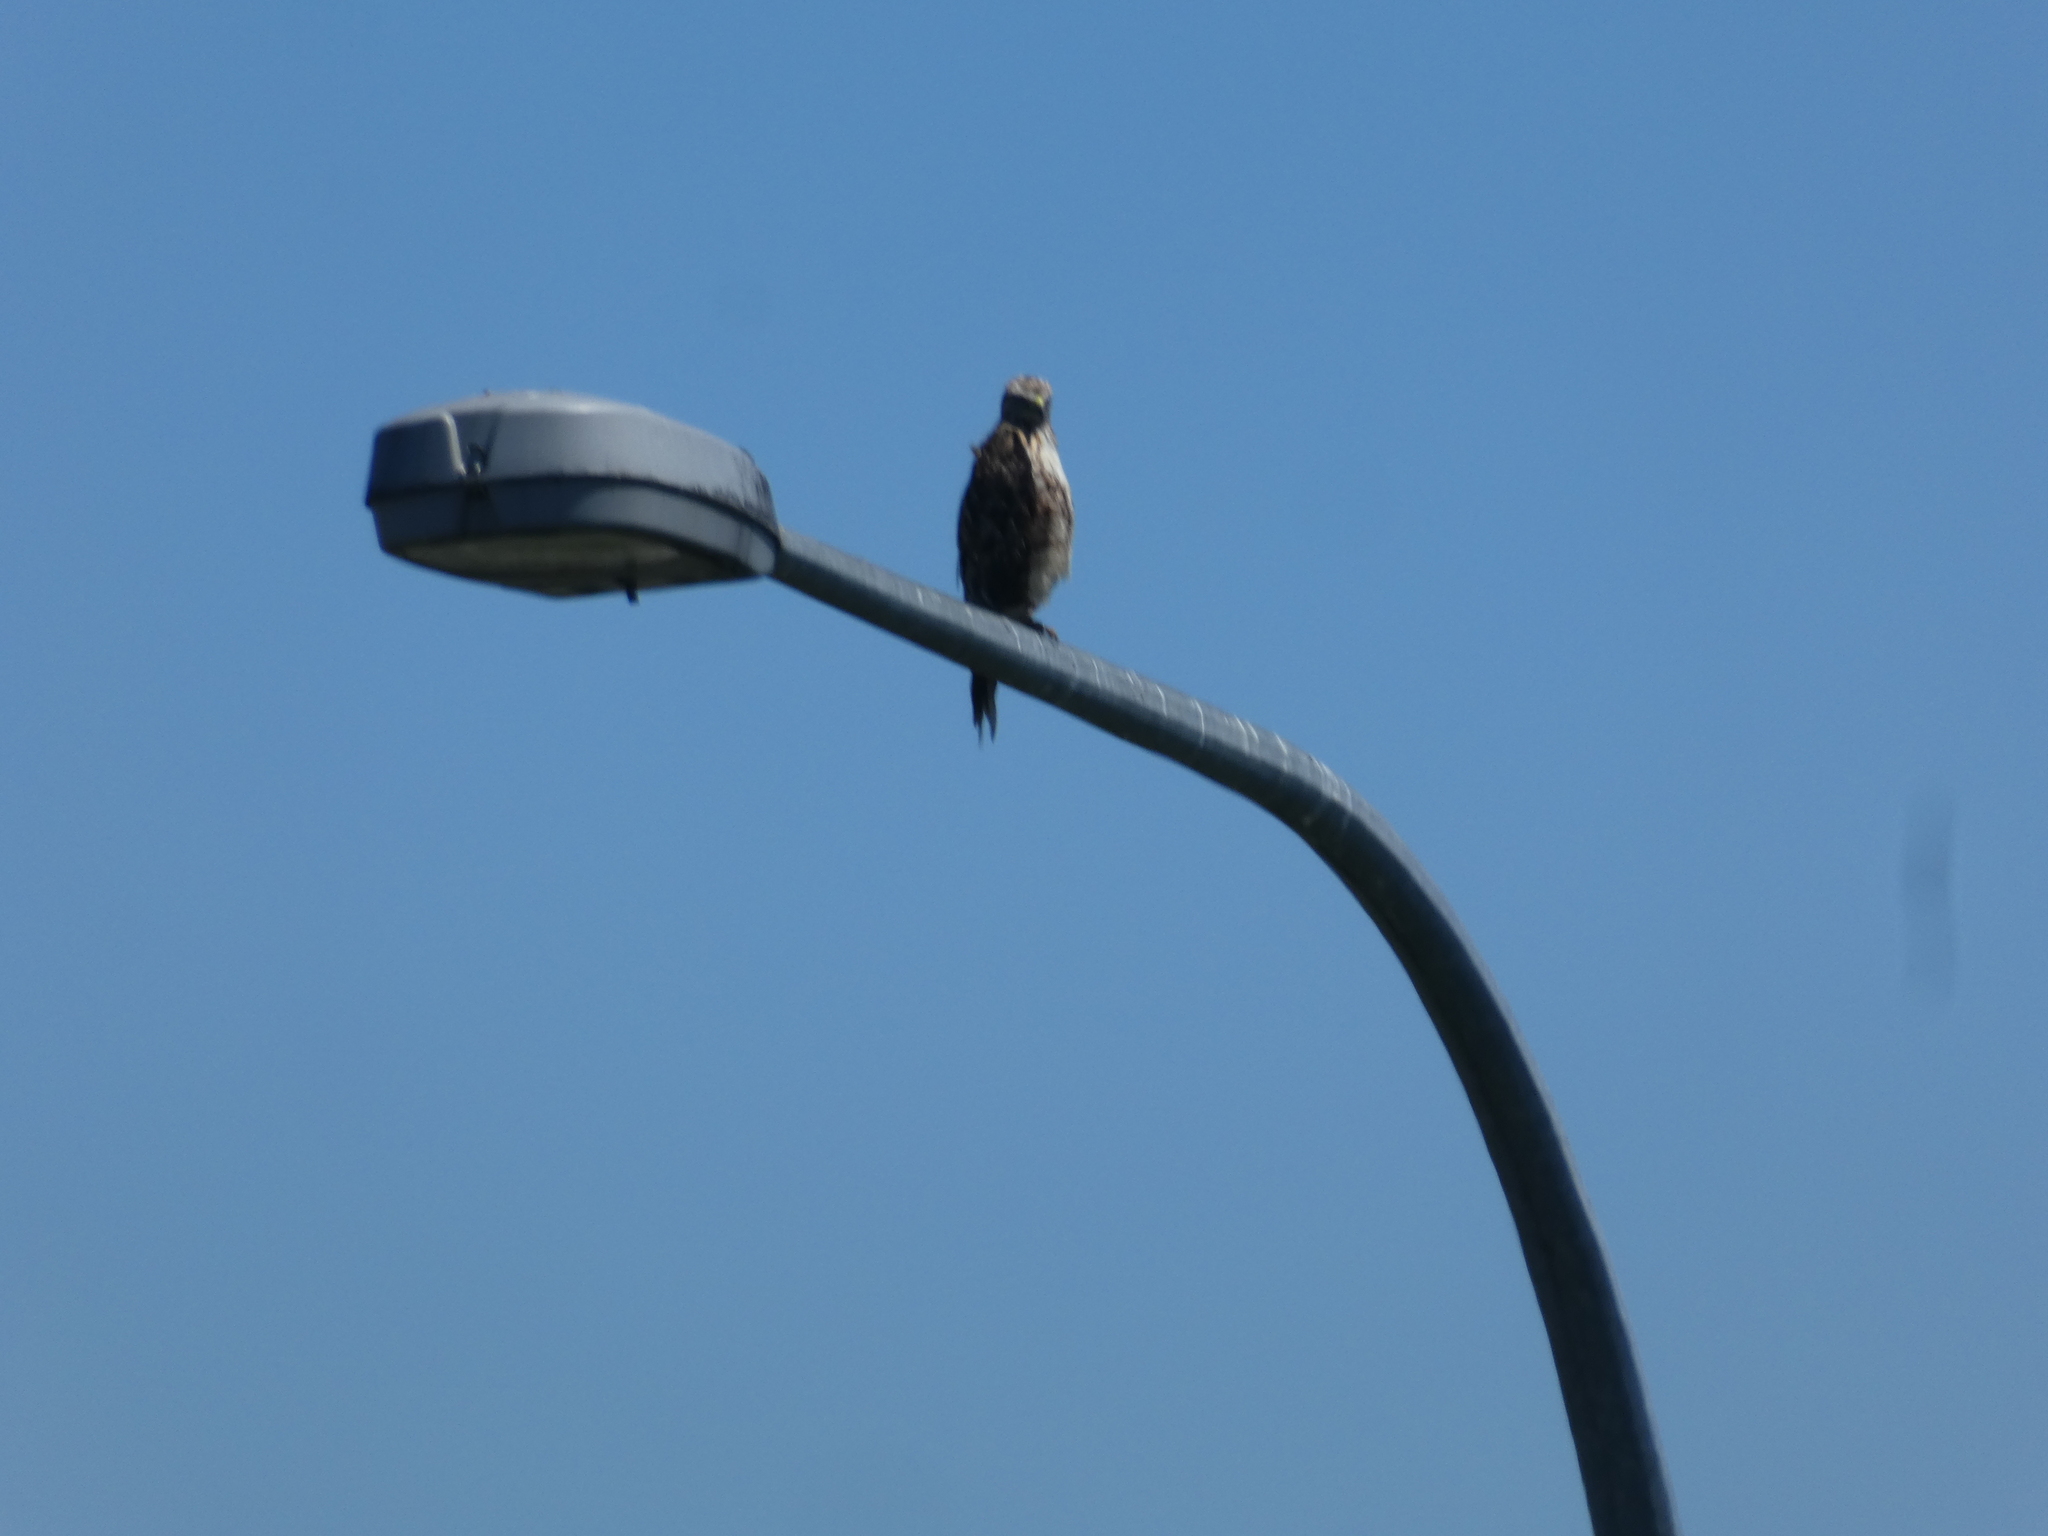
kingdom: Animalia
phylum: Chordata
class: Aves
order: Accipitriformes
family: Accipitridae
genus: Buteo
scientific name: Buteo jamaicensis
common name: Red-tailed hawk
